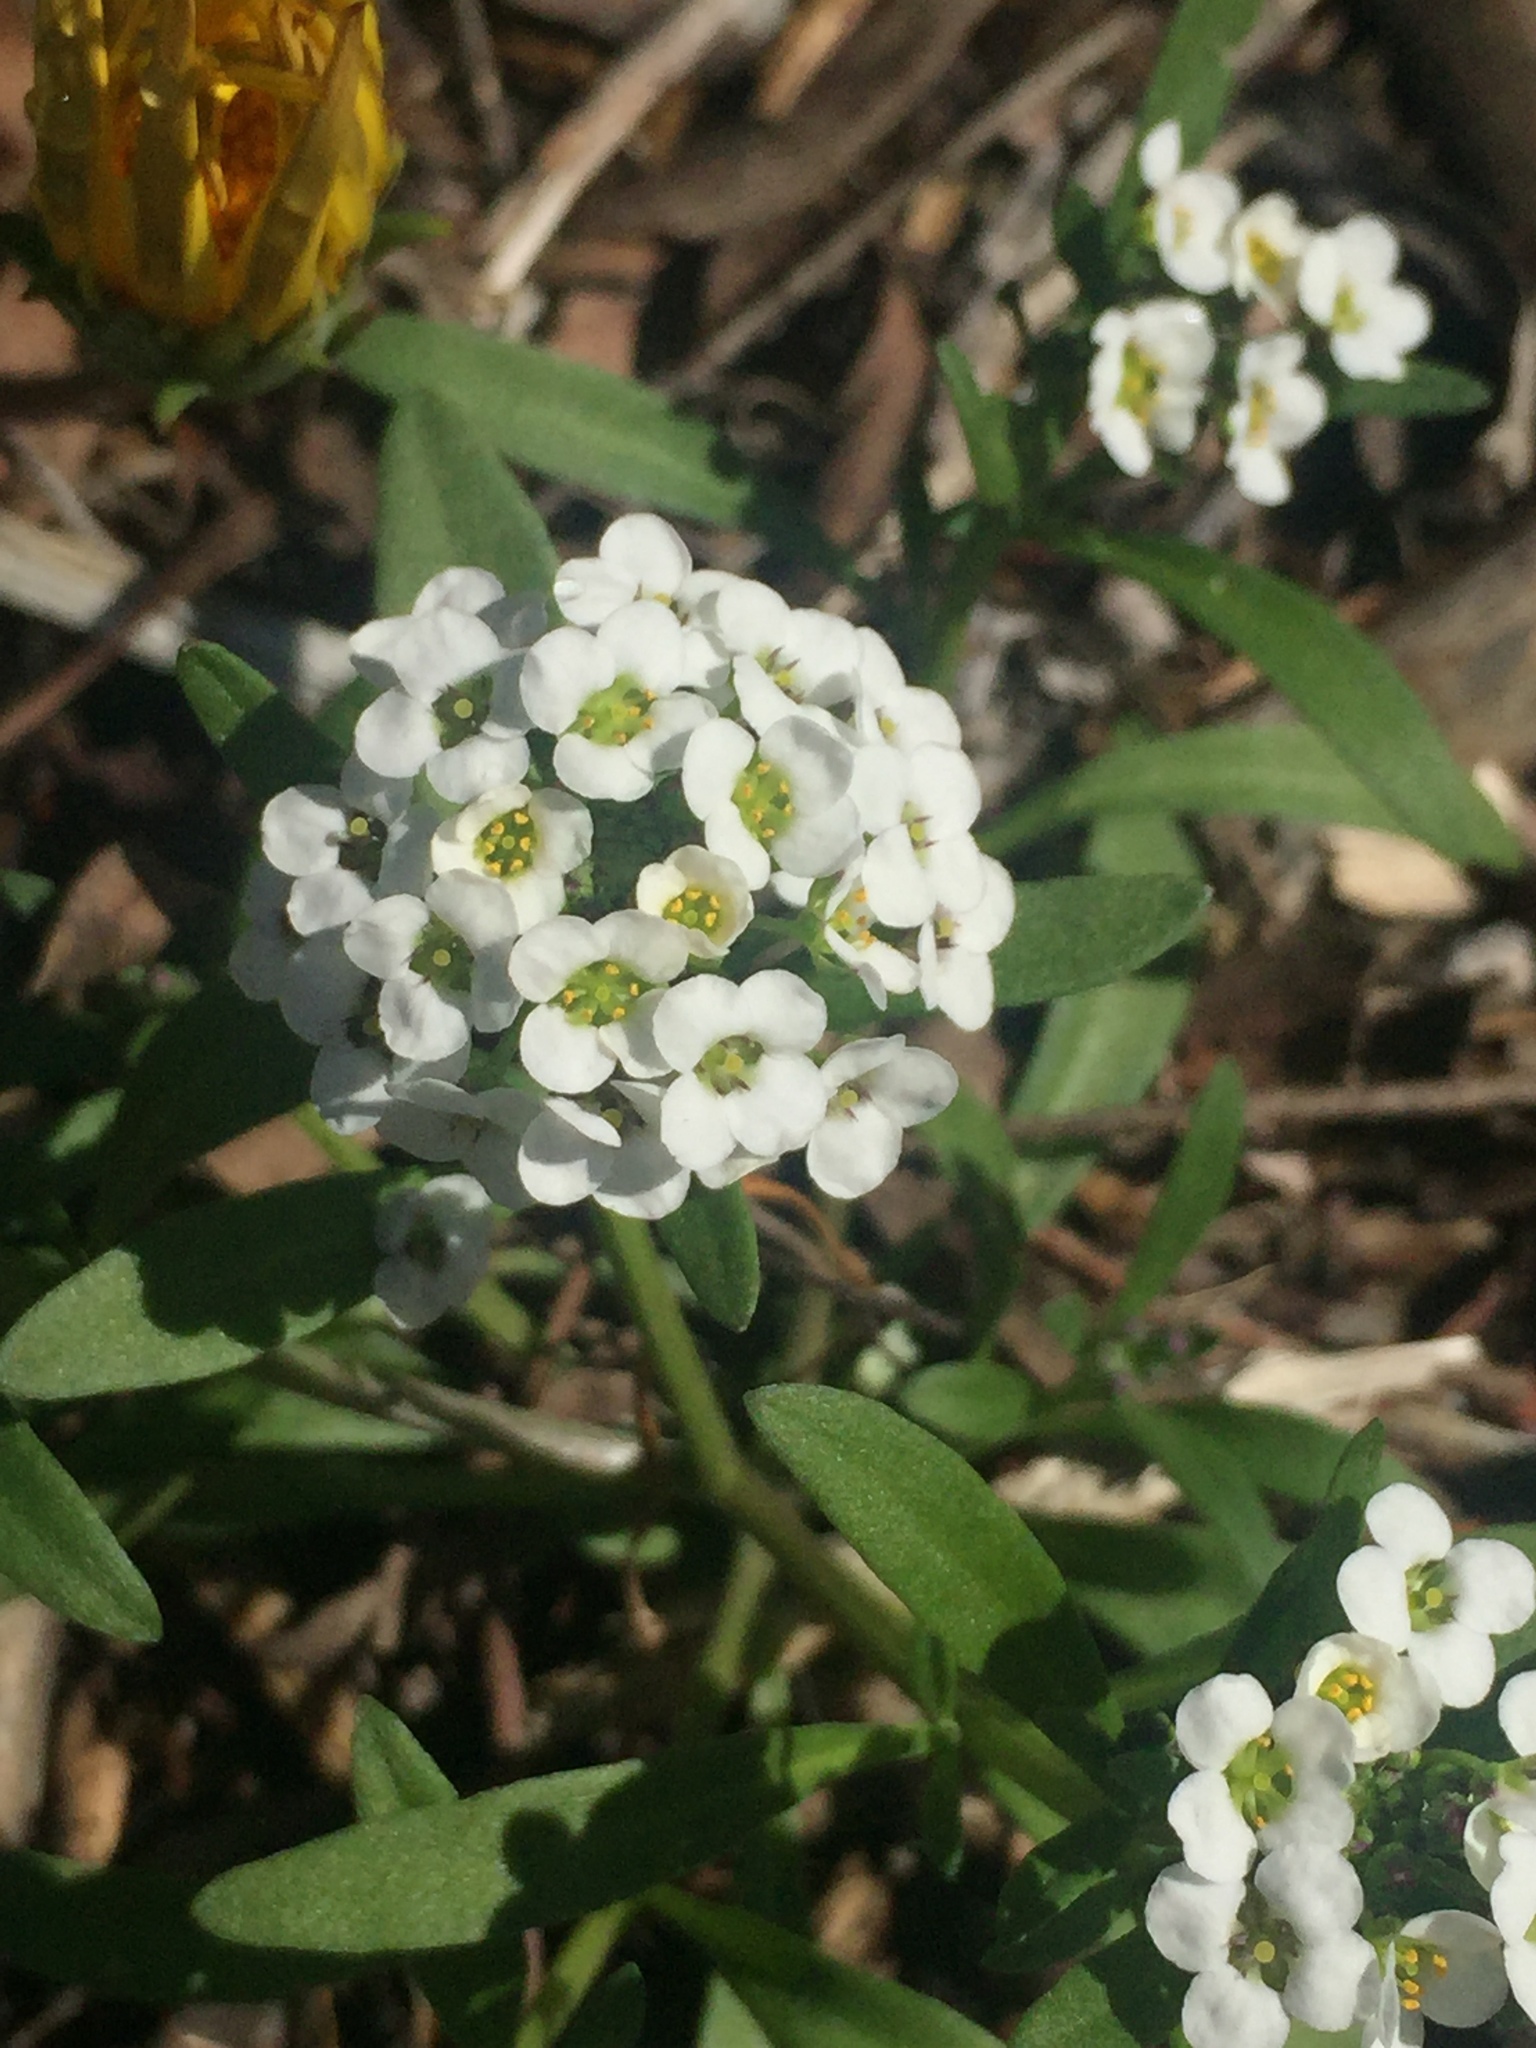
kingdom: Plantae
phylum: Tracheophyta
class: Magnoliopsida
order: Brassicales
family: Brassicaceae
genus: Lobularia
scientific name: Lobularia maritima
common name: Sweet alison
